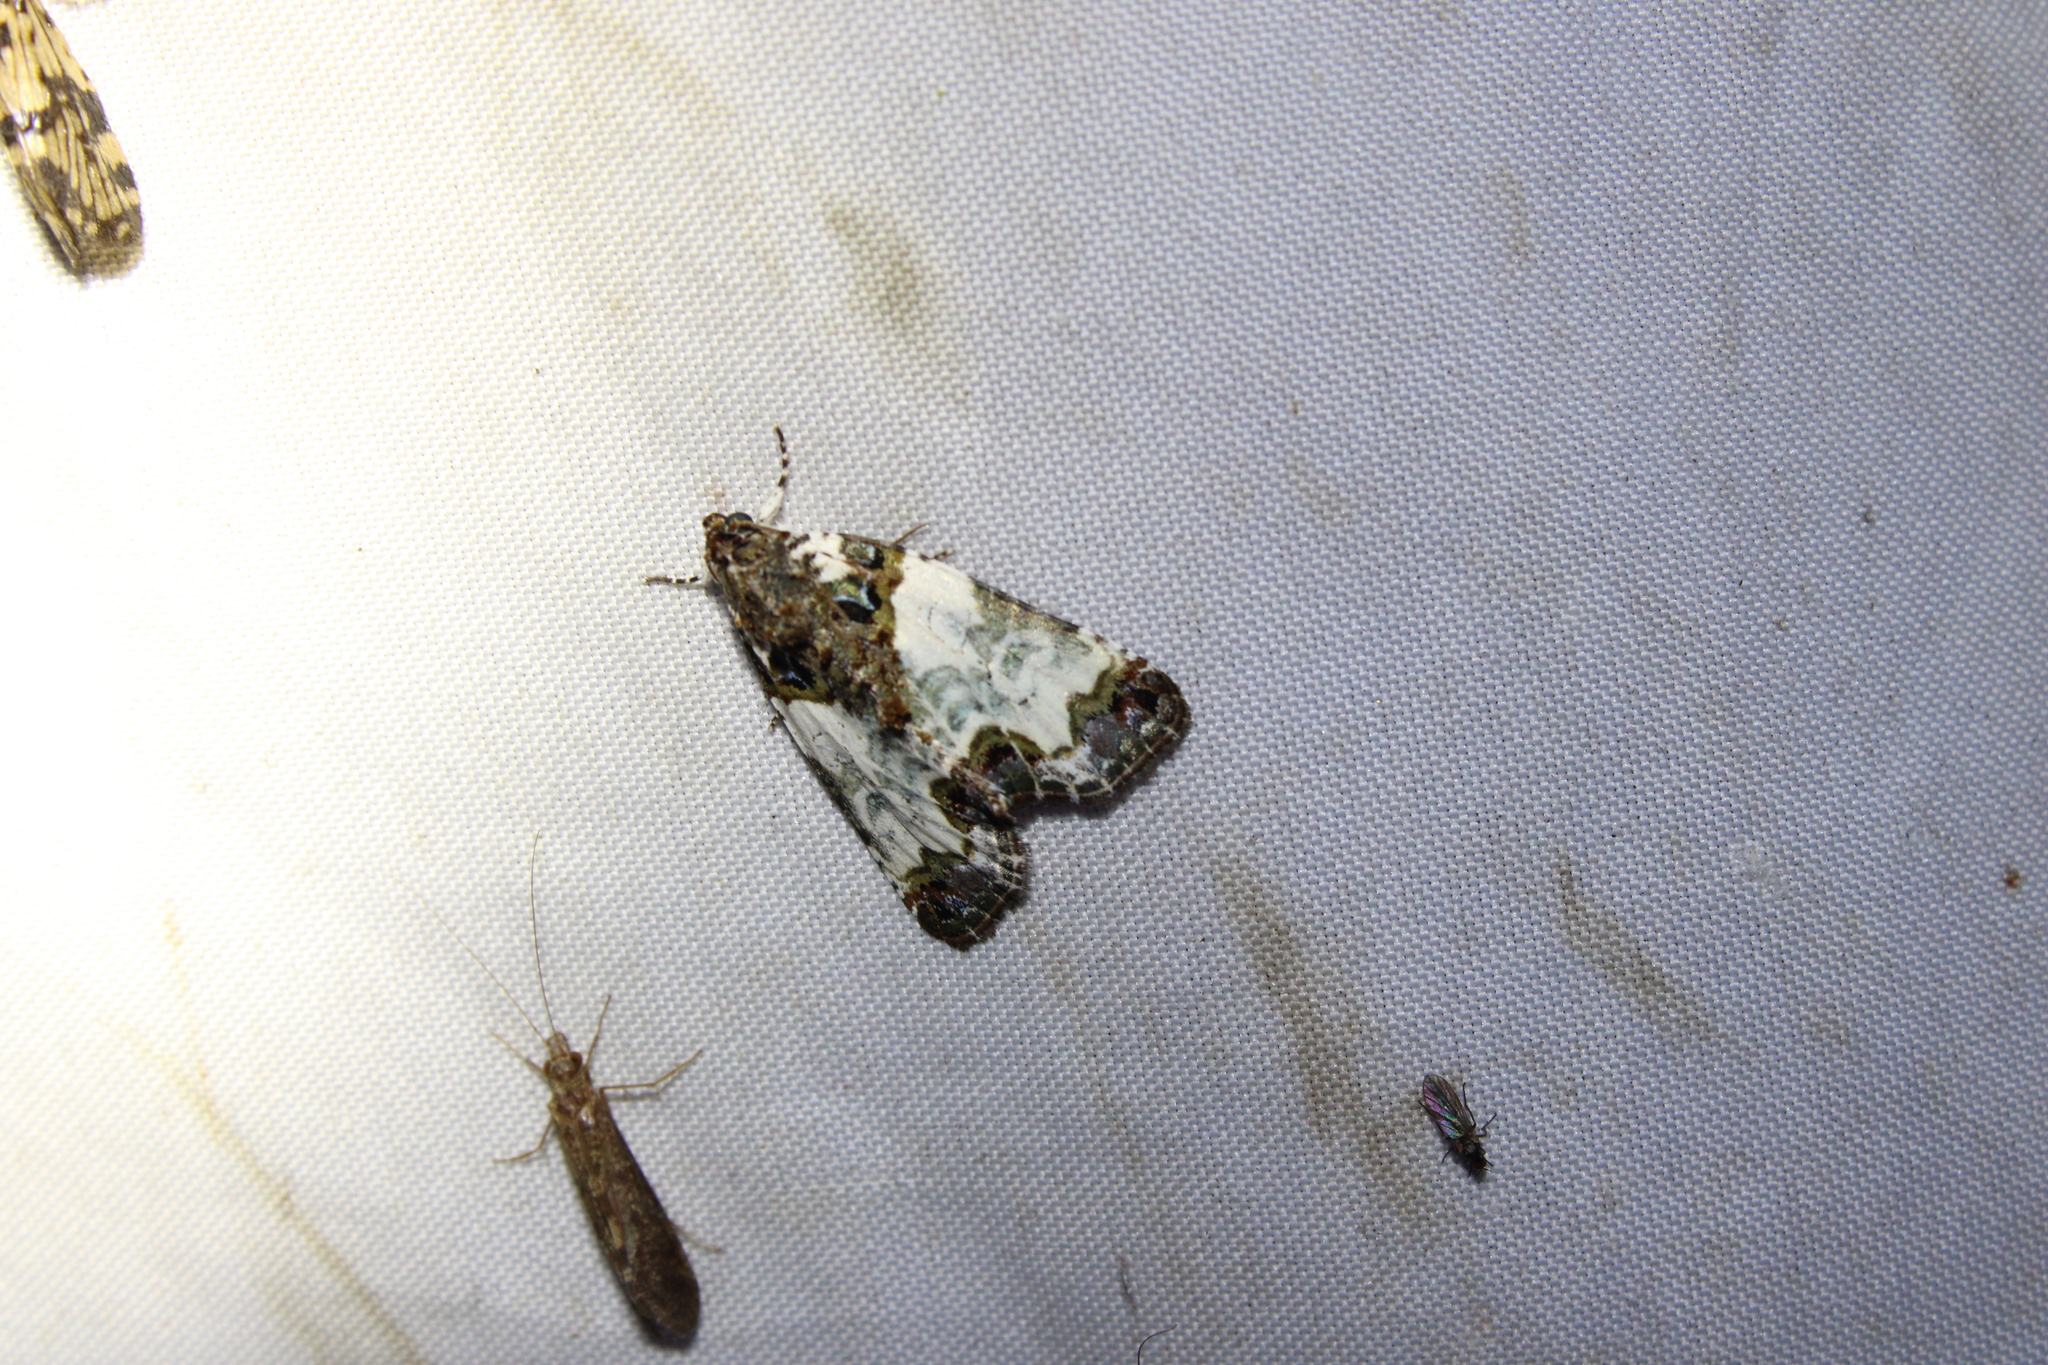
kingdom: Animalia
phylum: Arthropoda
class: Insecta
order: Lepidoptera
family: Noctuidae
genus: Cerma
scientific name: Cerma cerintha
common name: Tufted bird-dropping moth
